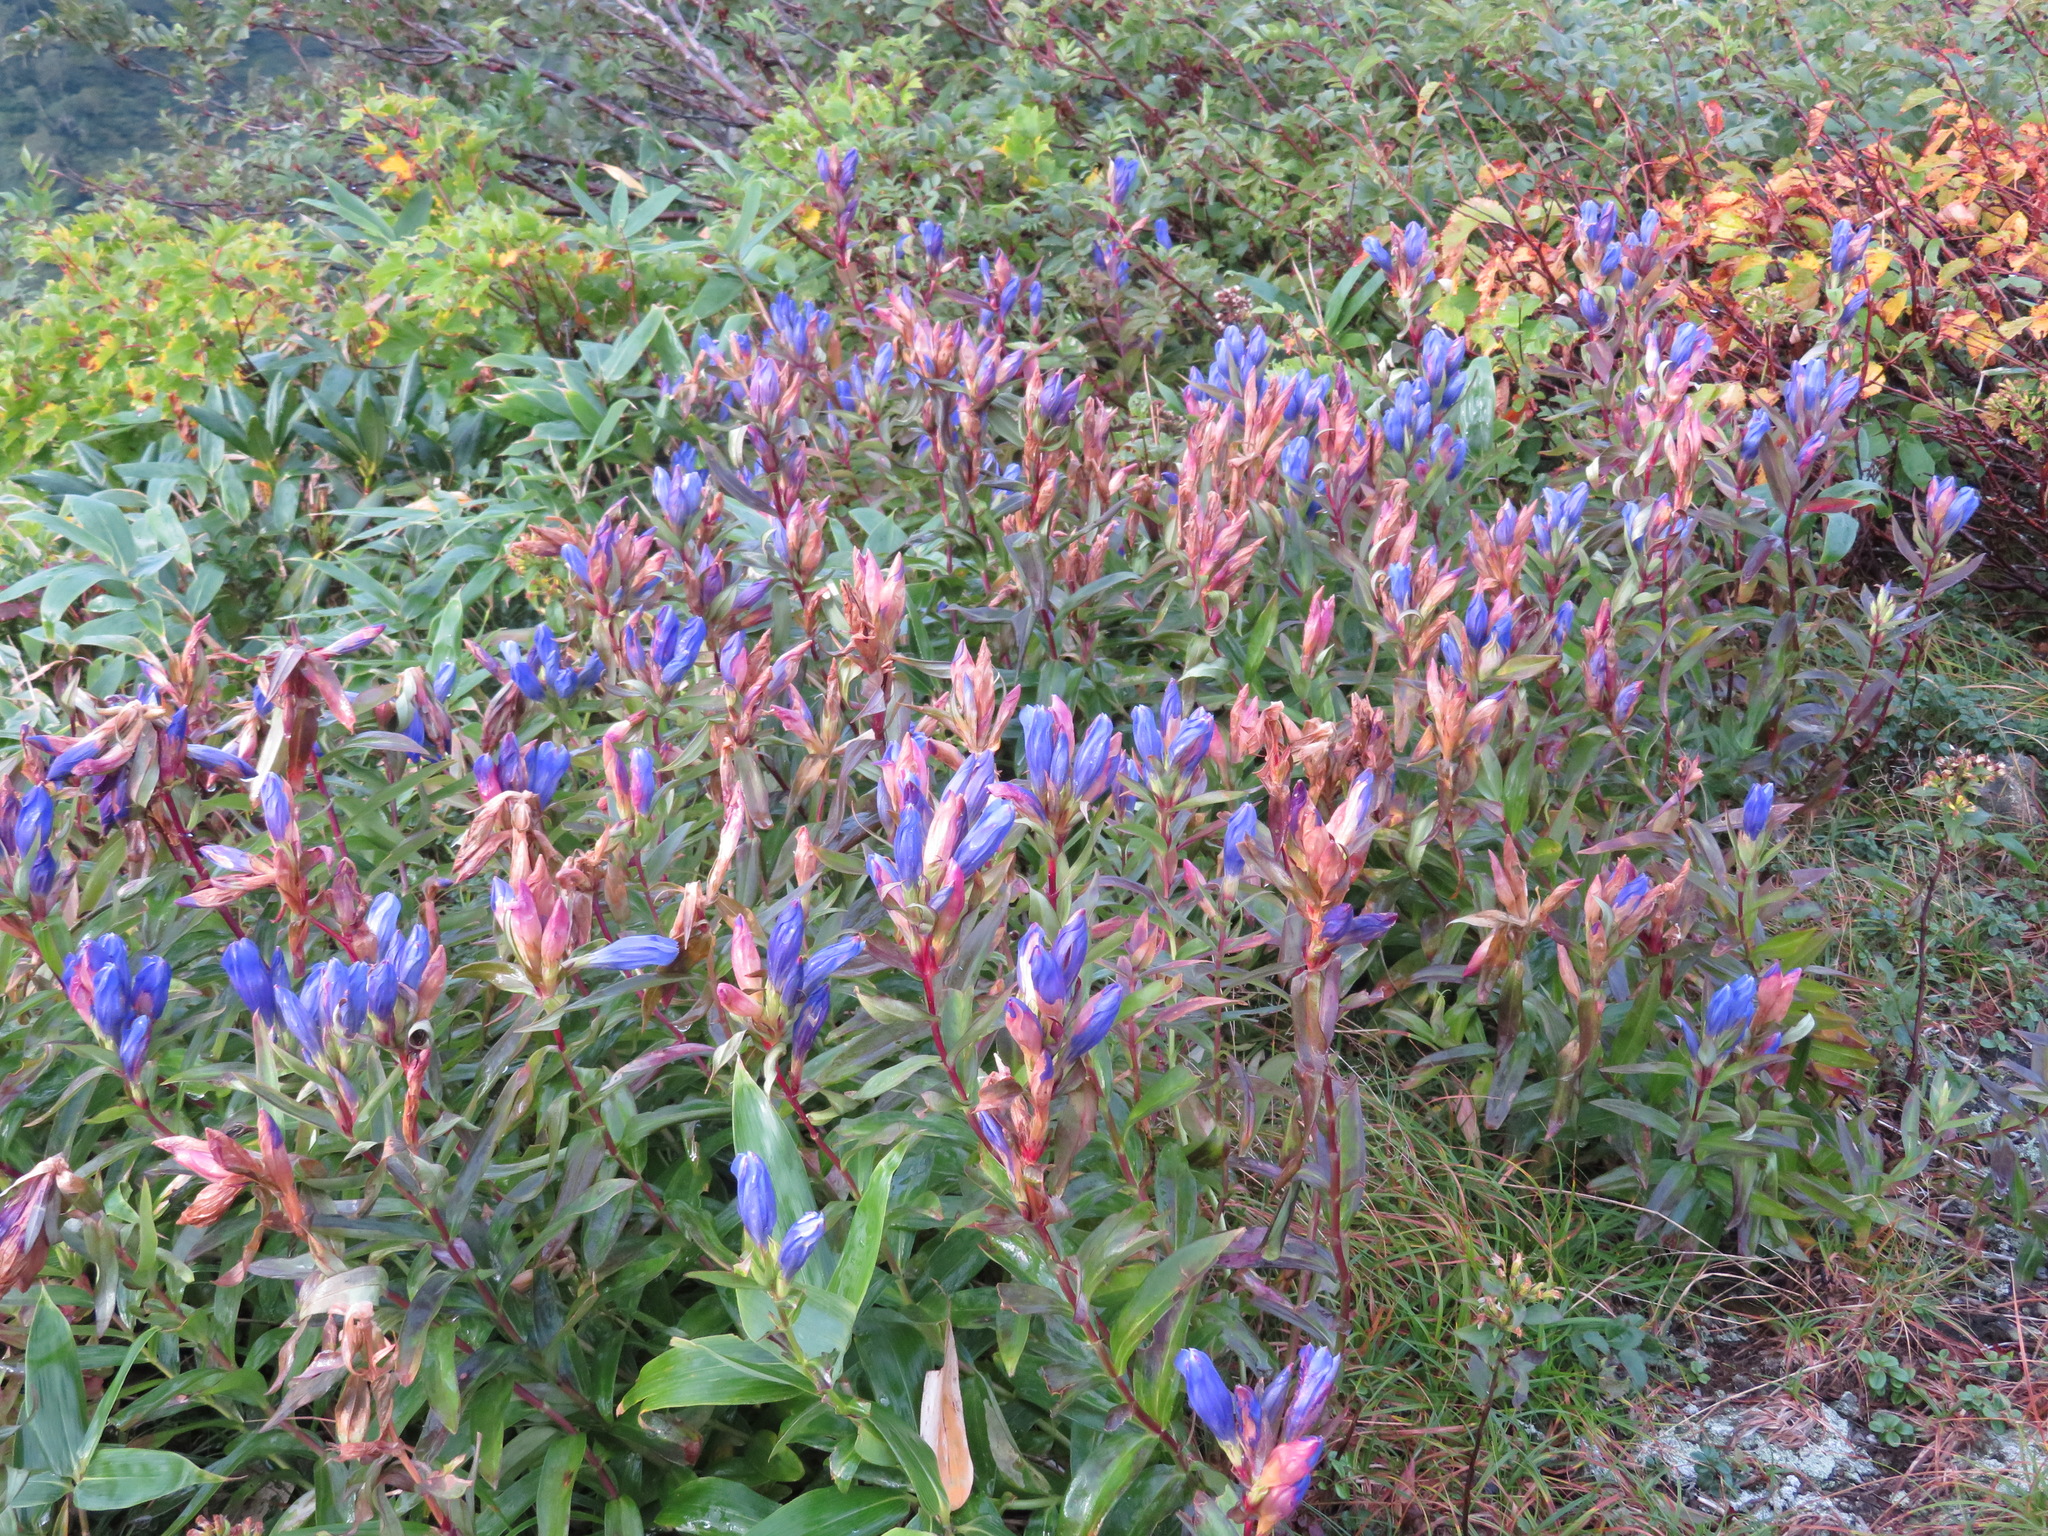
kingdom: Plantae
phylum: Tracheophyta
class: Magnoliopsida
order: Gentianales
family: Gentianaceae
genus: Gentiana
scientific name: Gentiana makinoi
